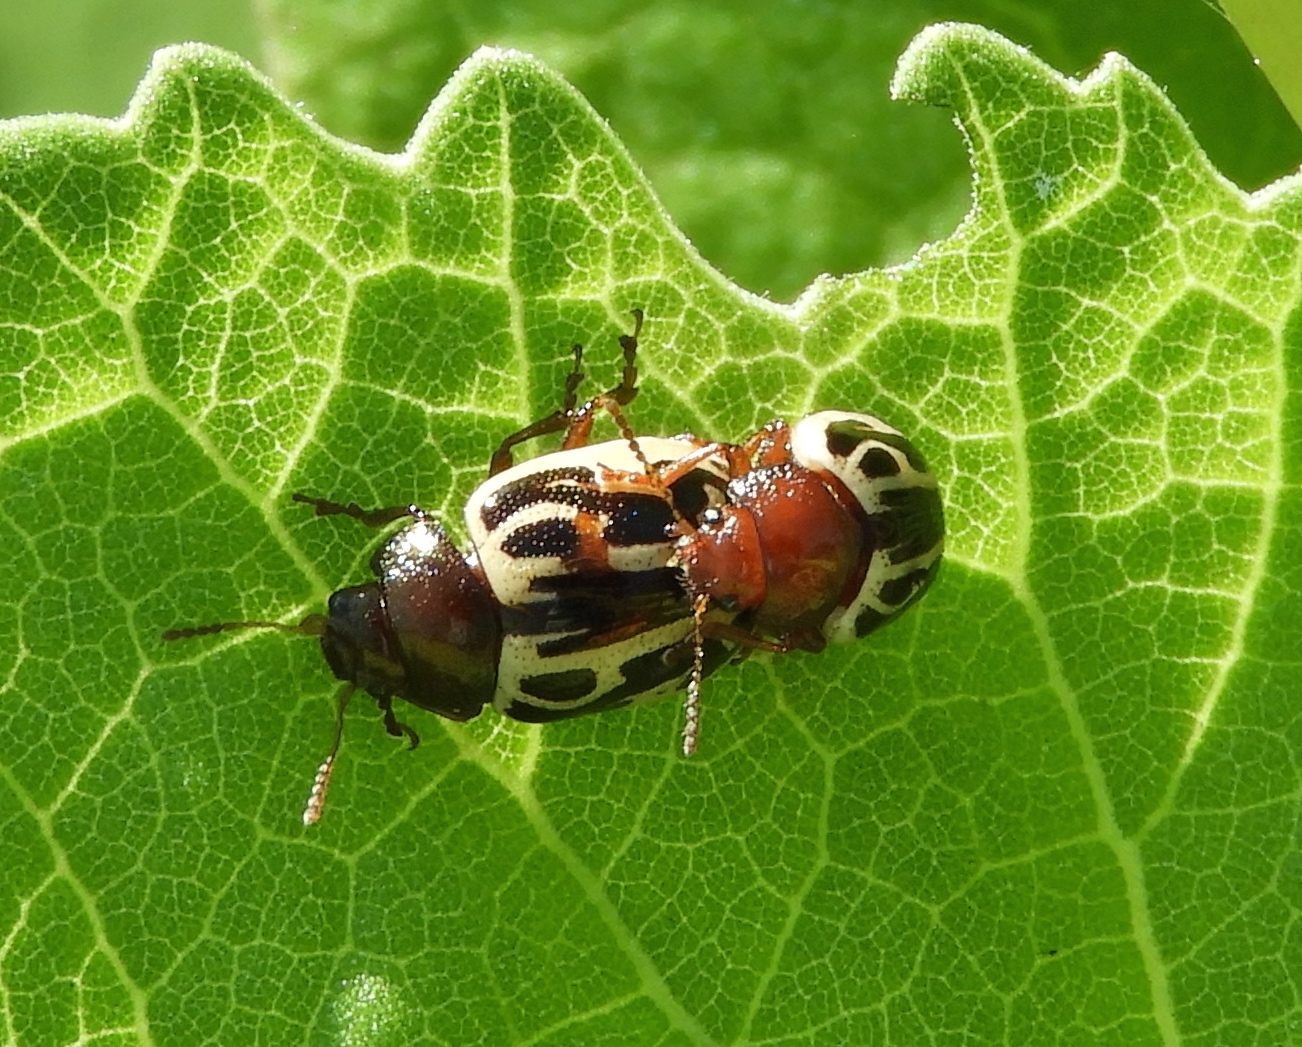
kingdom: Animalia
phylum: Arthropoda
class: Insecta
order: Coleoptera
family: Chrysomelidae
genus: Calligrapha
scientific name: Calligrapha
